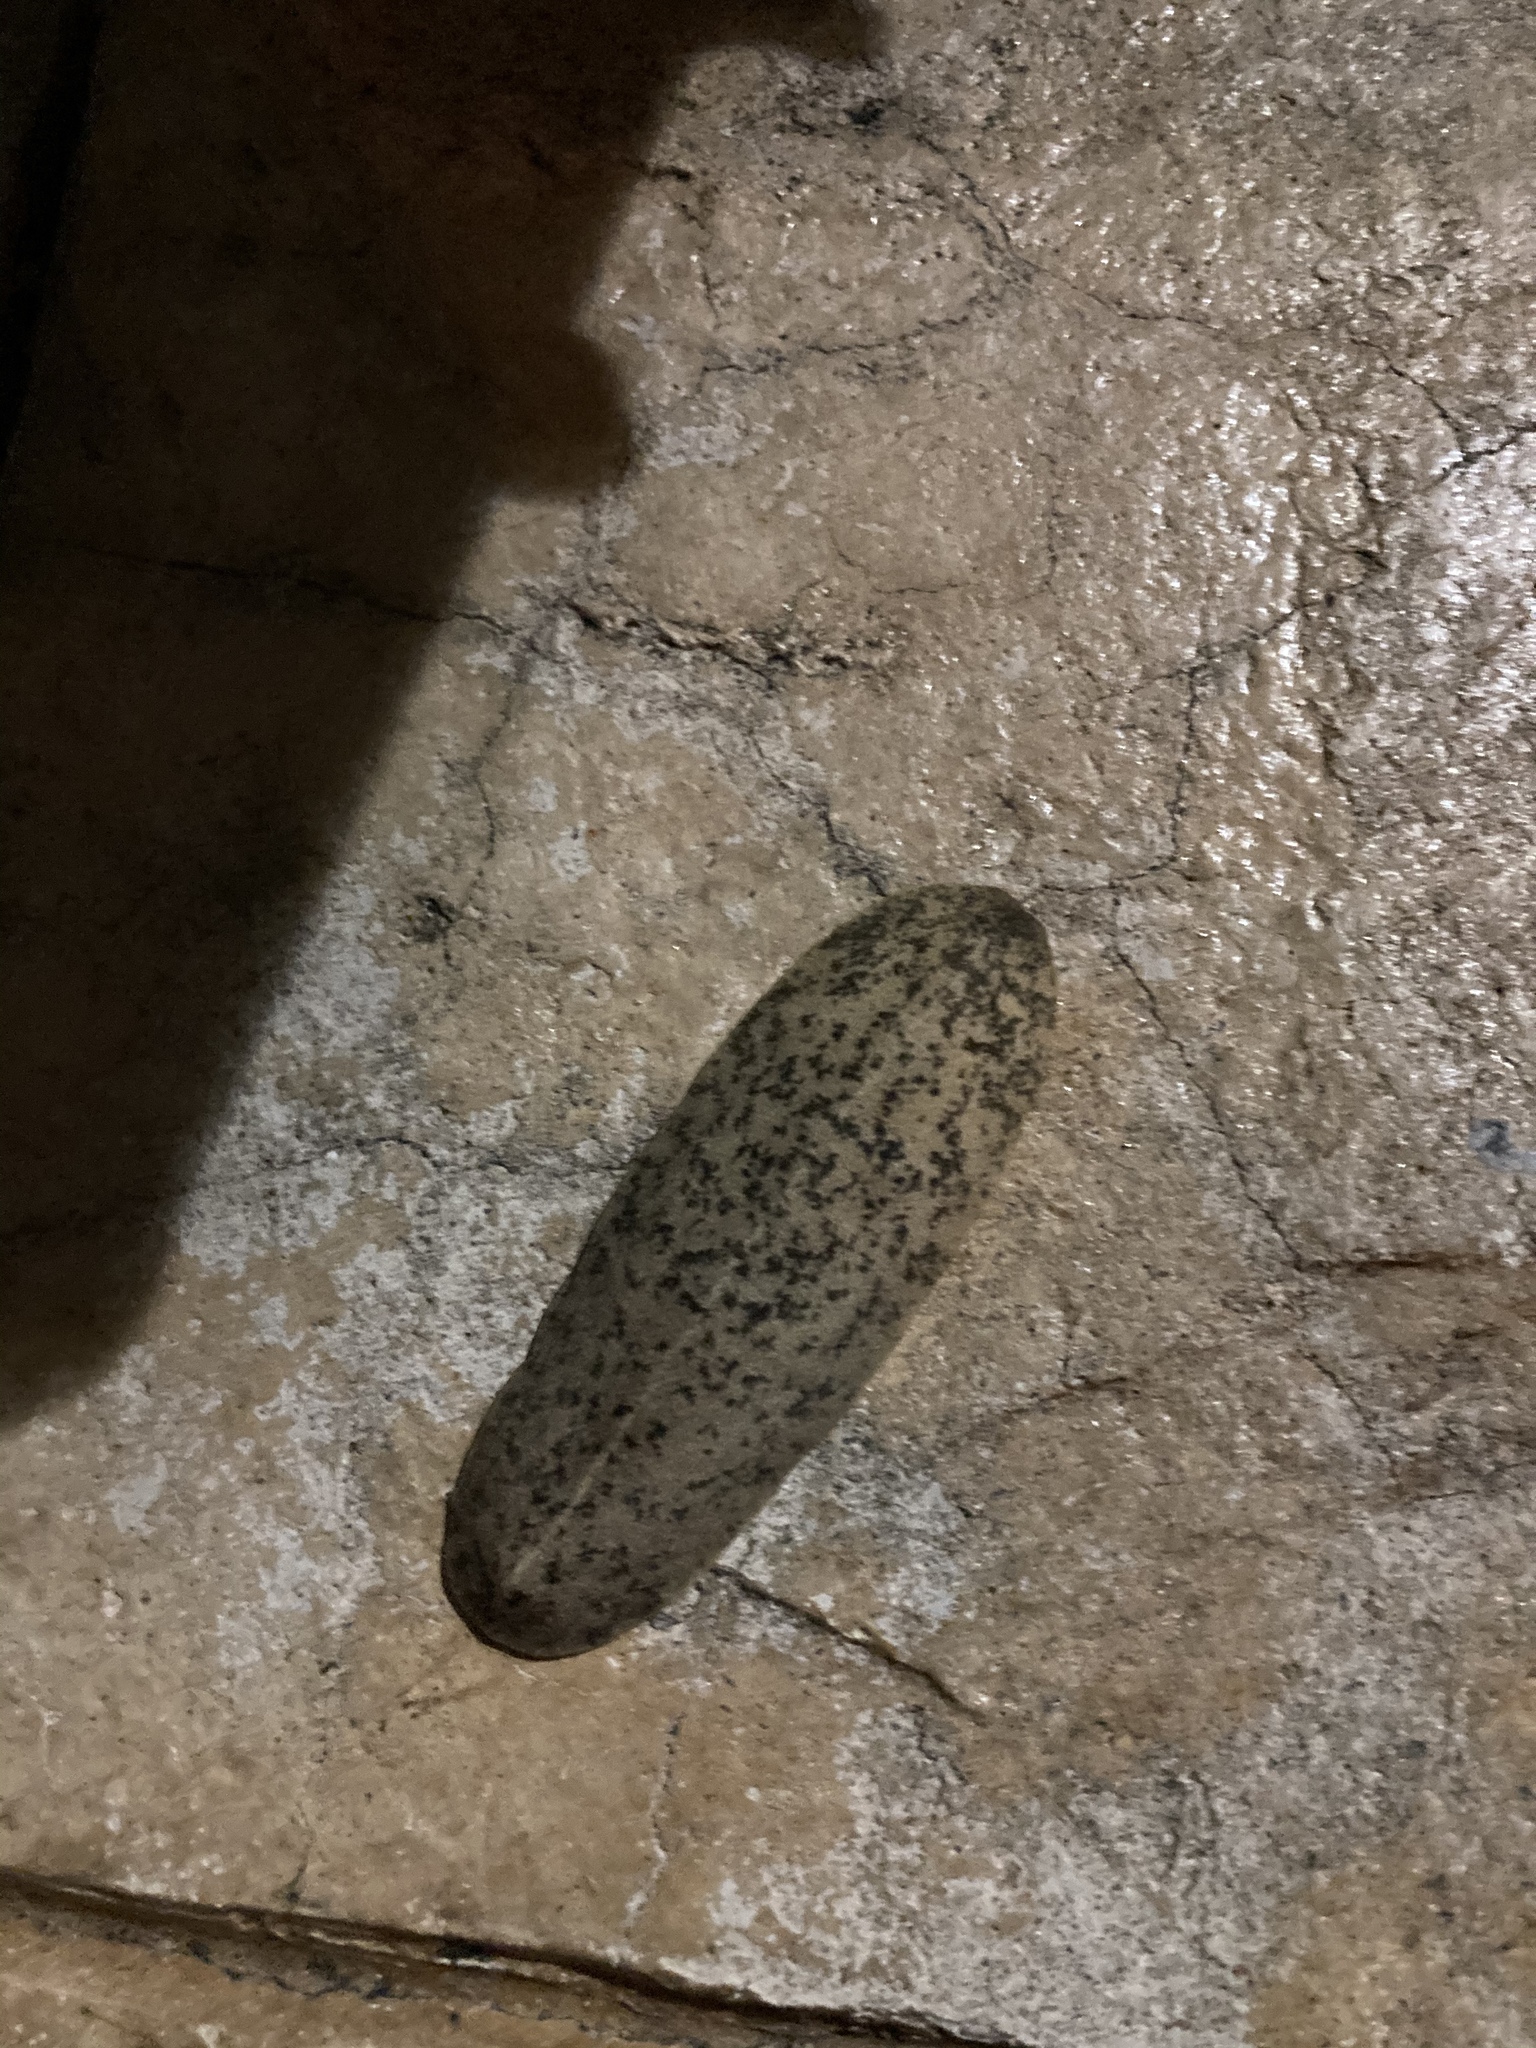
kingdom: Animalia
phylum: Mollusca
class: Gastropoda
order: Systellommatophora
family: Veronicellidae
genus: Leidyula
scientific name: Leidyula floridana
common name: Florida leatherleaf
